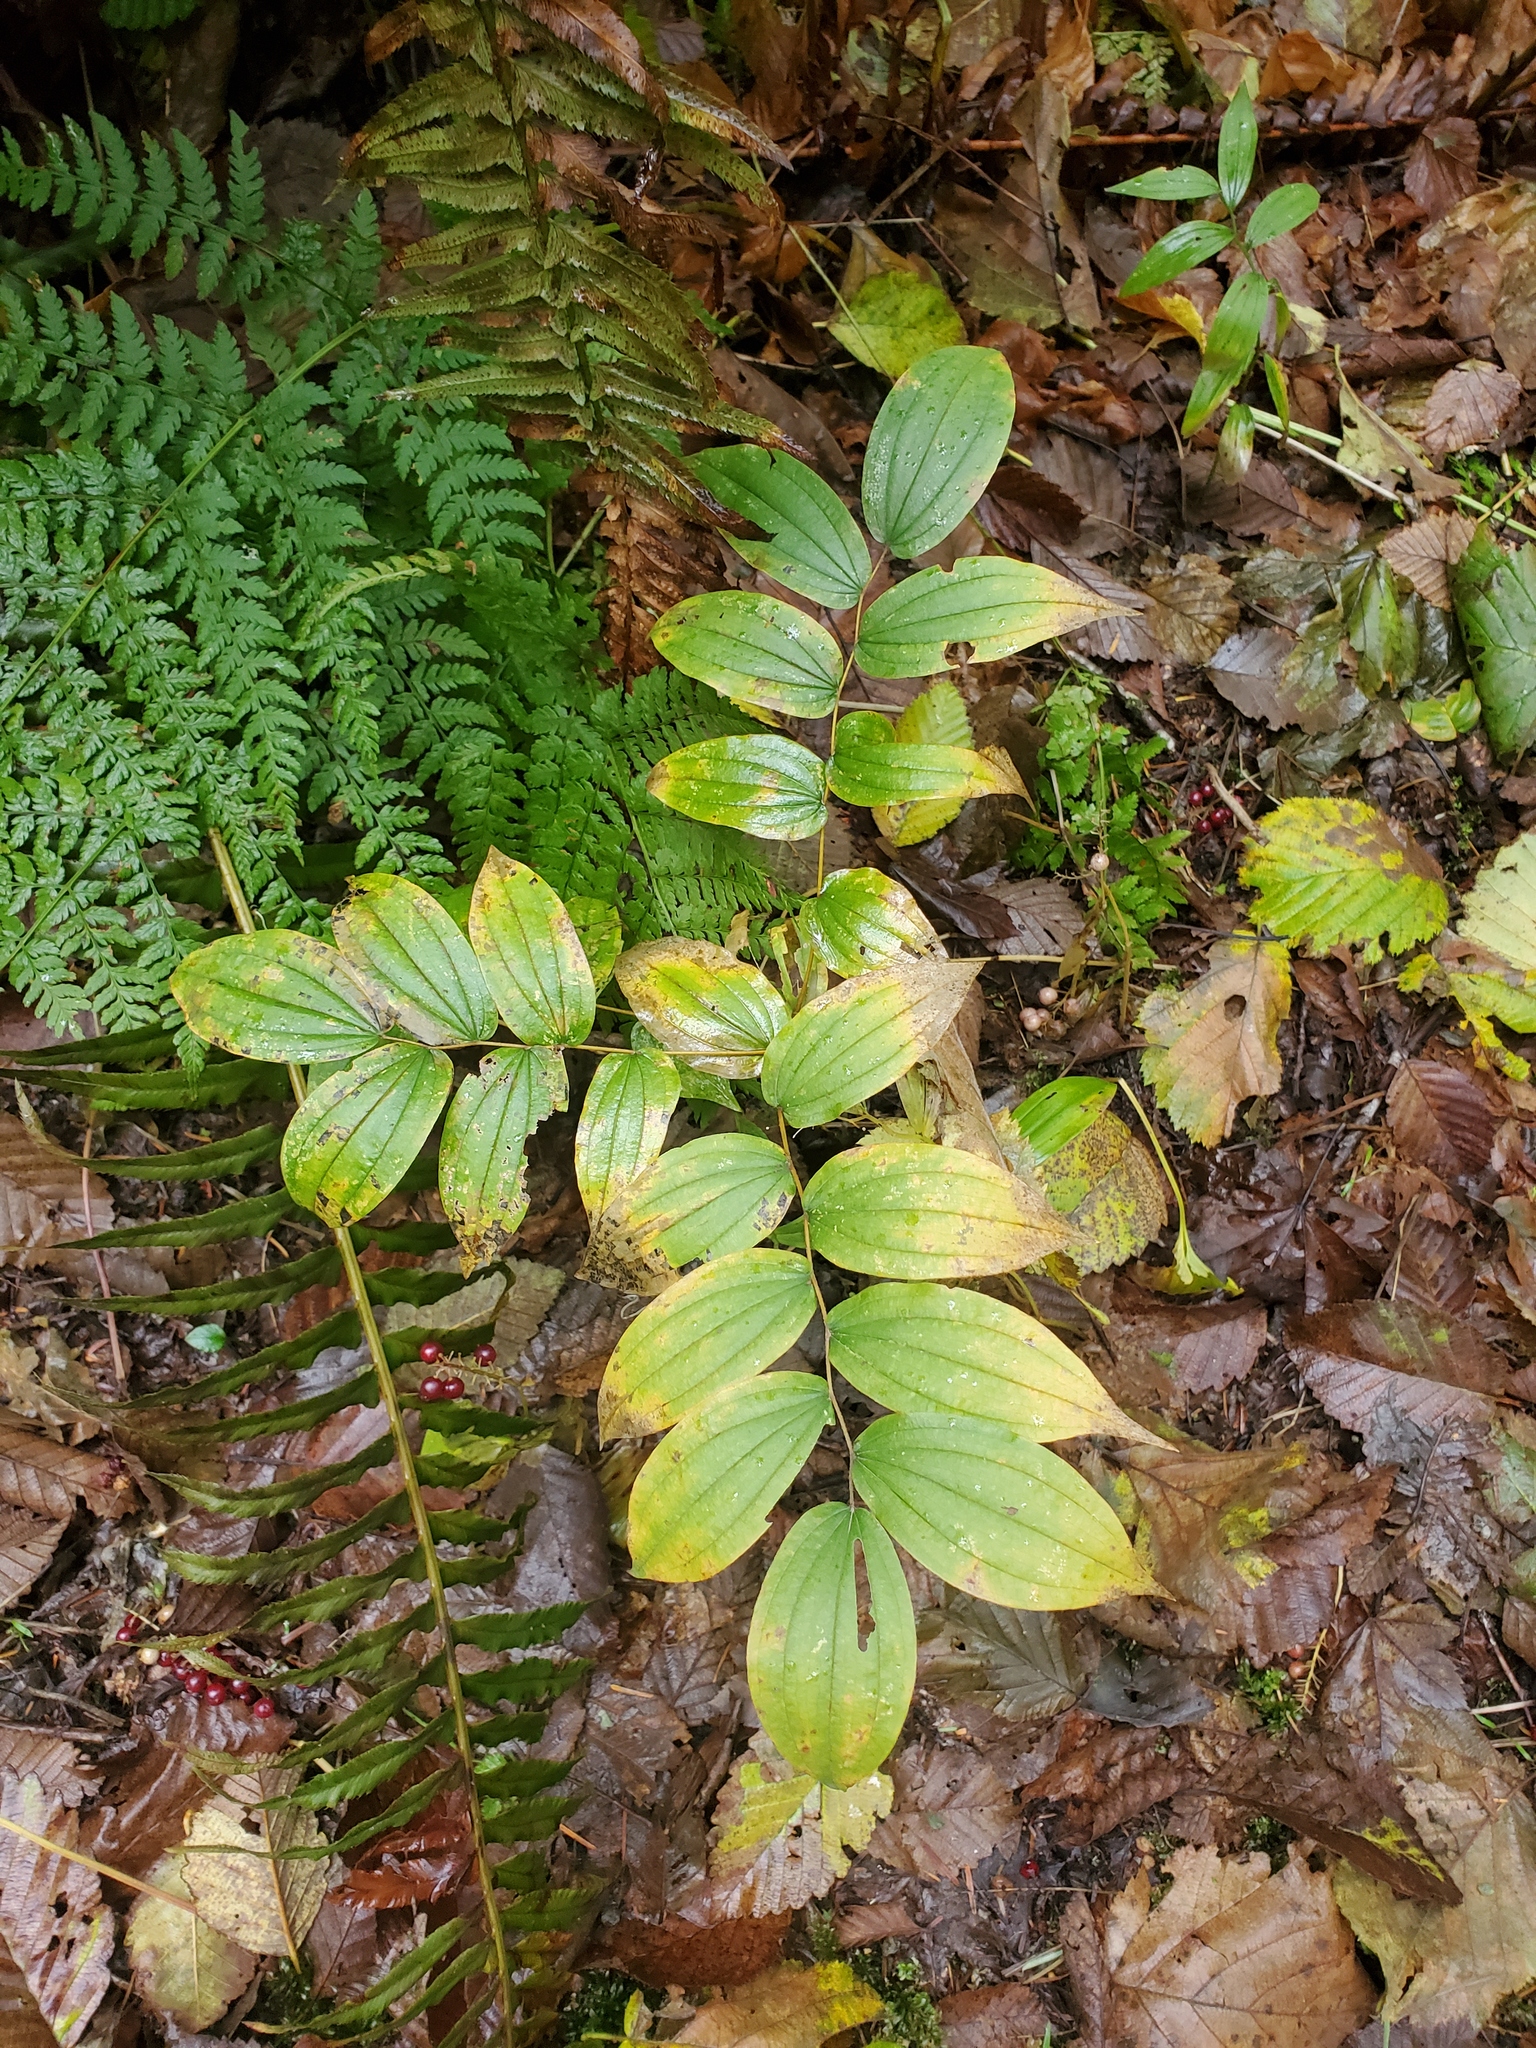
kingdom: Plantae
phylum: Tracheophyta
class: Liliopsida
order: Asparagales
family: Asparagaceae
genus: Maianthemum
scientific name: Maianthemum racemosum
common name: False spikenard
